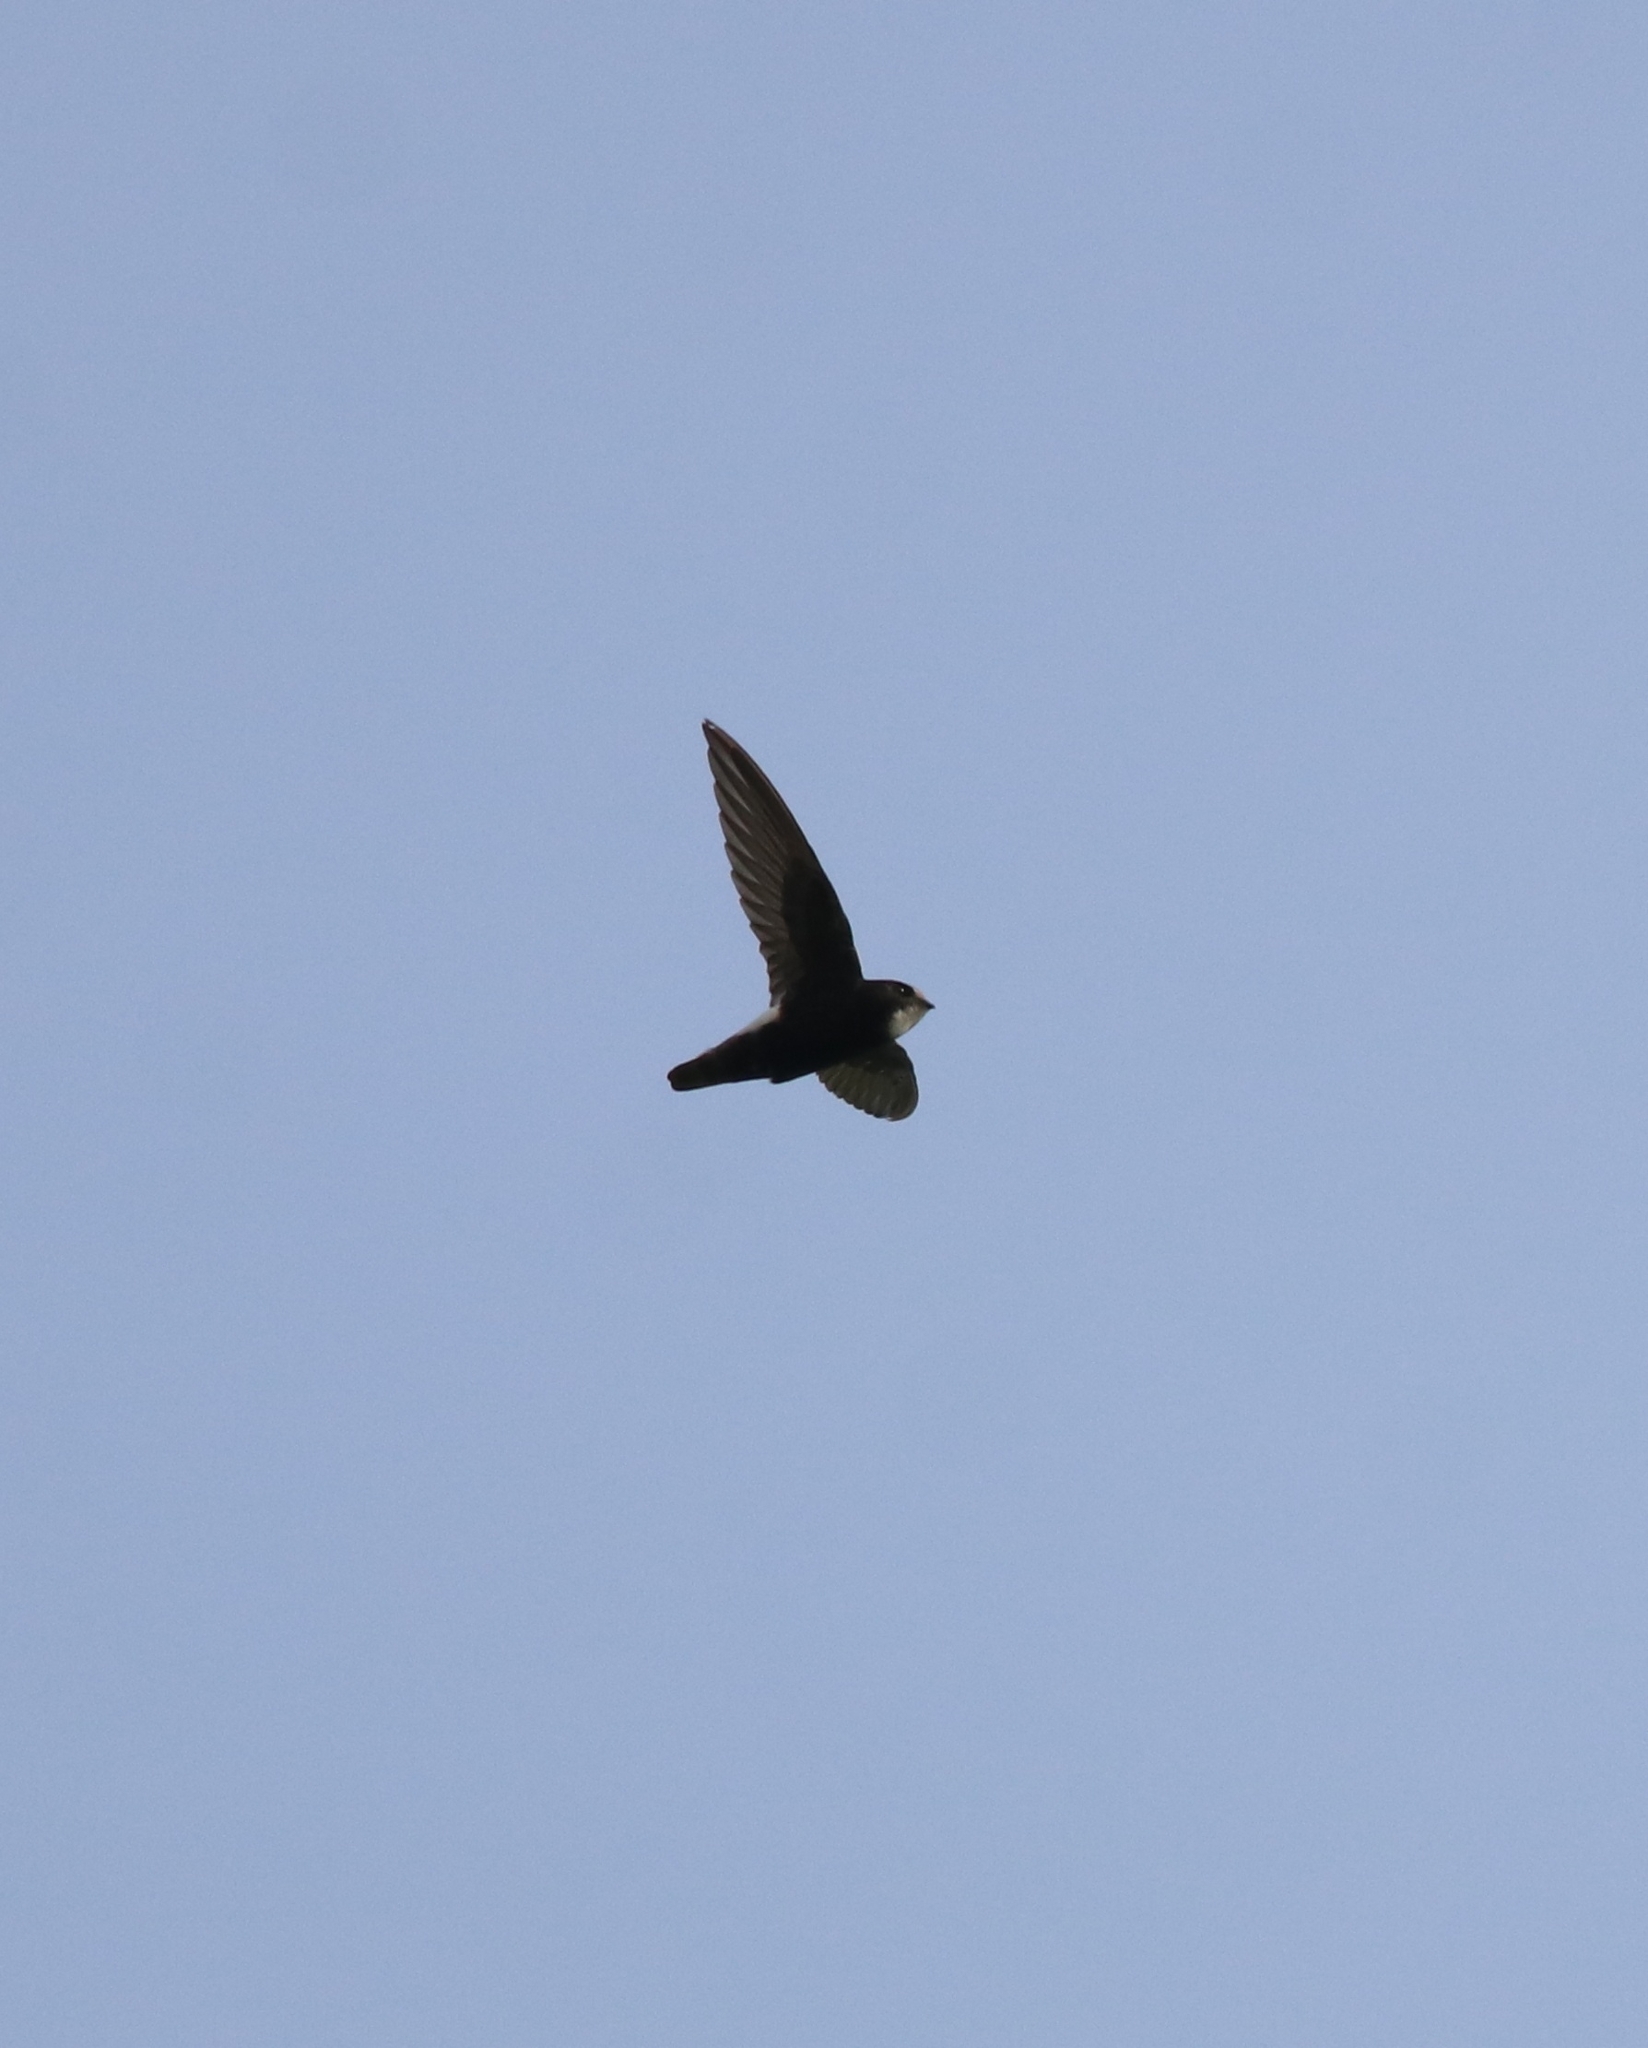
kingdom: Animalia
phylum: Chordata
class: Aves
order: Apodiformes
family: Apodidae
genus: Apus
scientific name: Apus affinis
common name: Little swift
